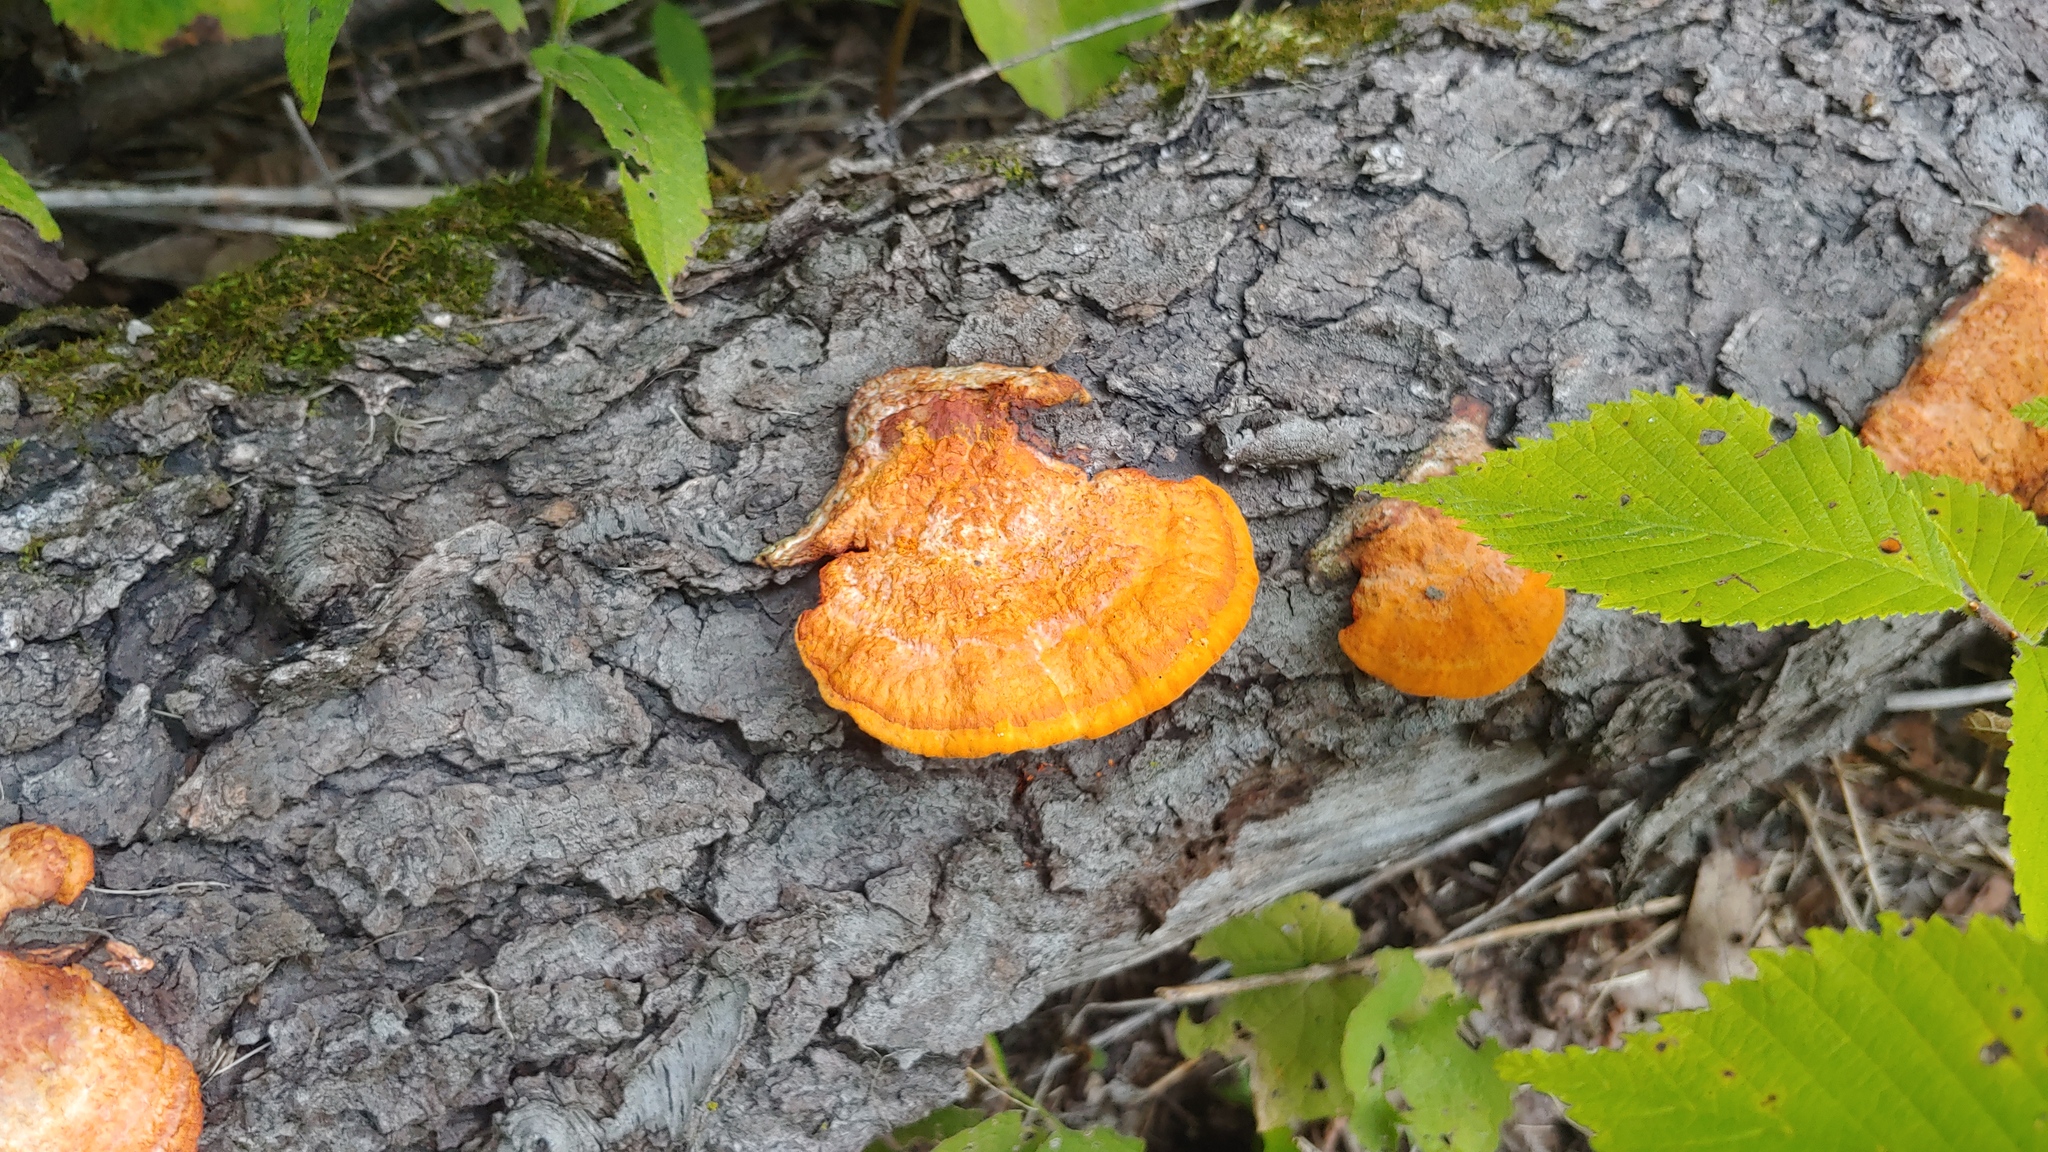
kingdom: Fungi
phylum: Basidiomycota
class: Agaricomycetes
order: Polyporales
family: Polyporaceae
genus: Trametes
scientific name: Trametes cinnabarina
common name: Northern cinnabar polypore
